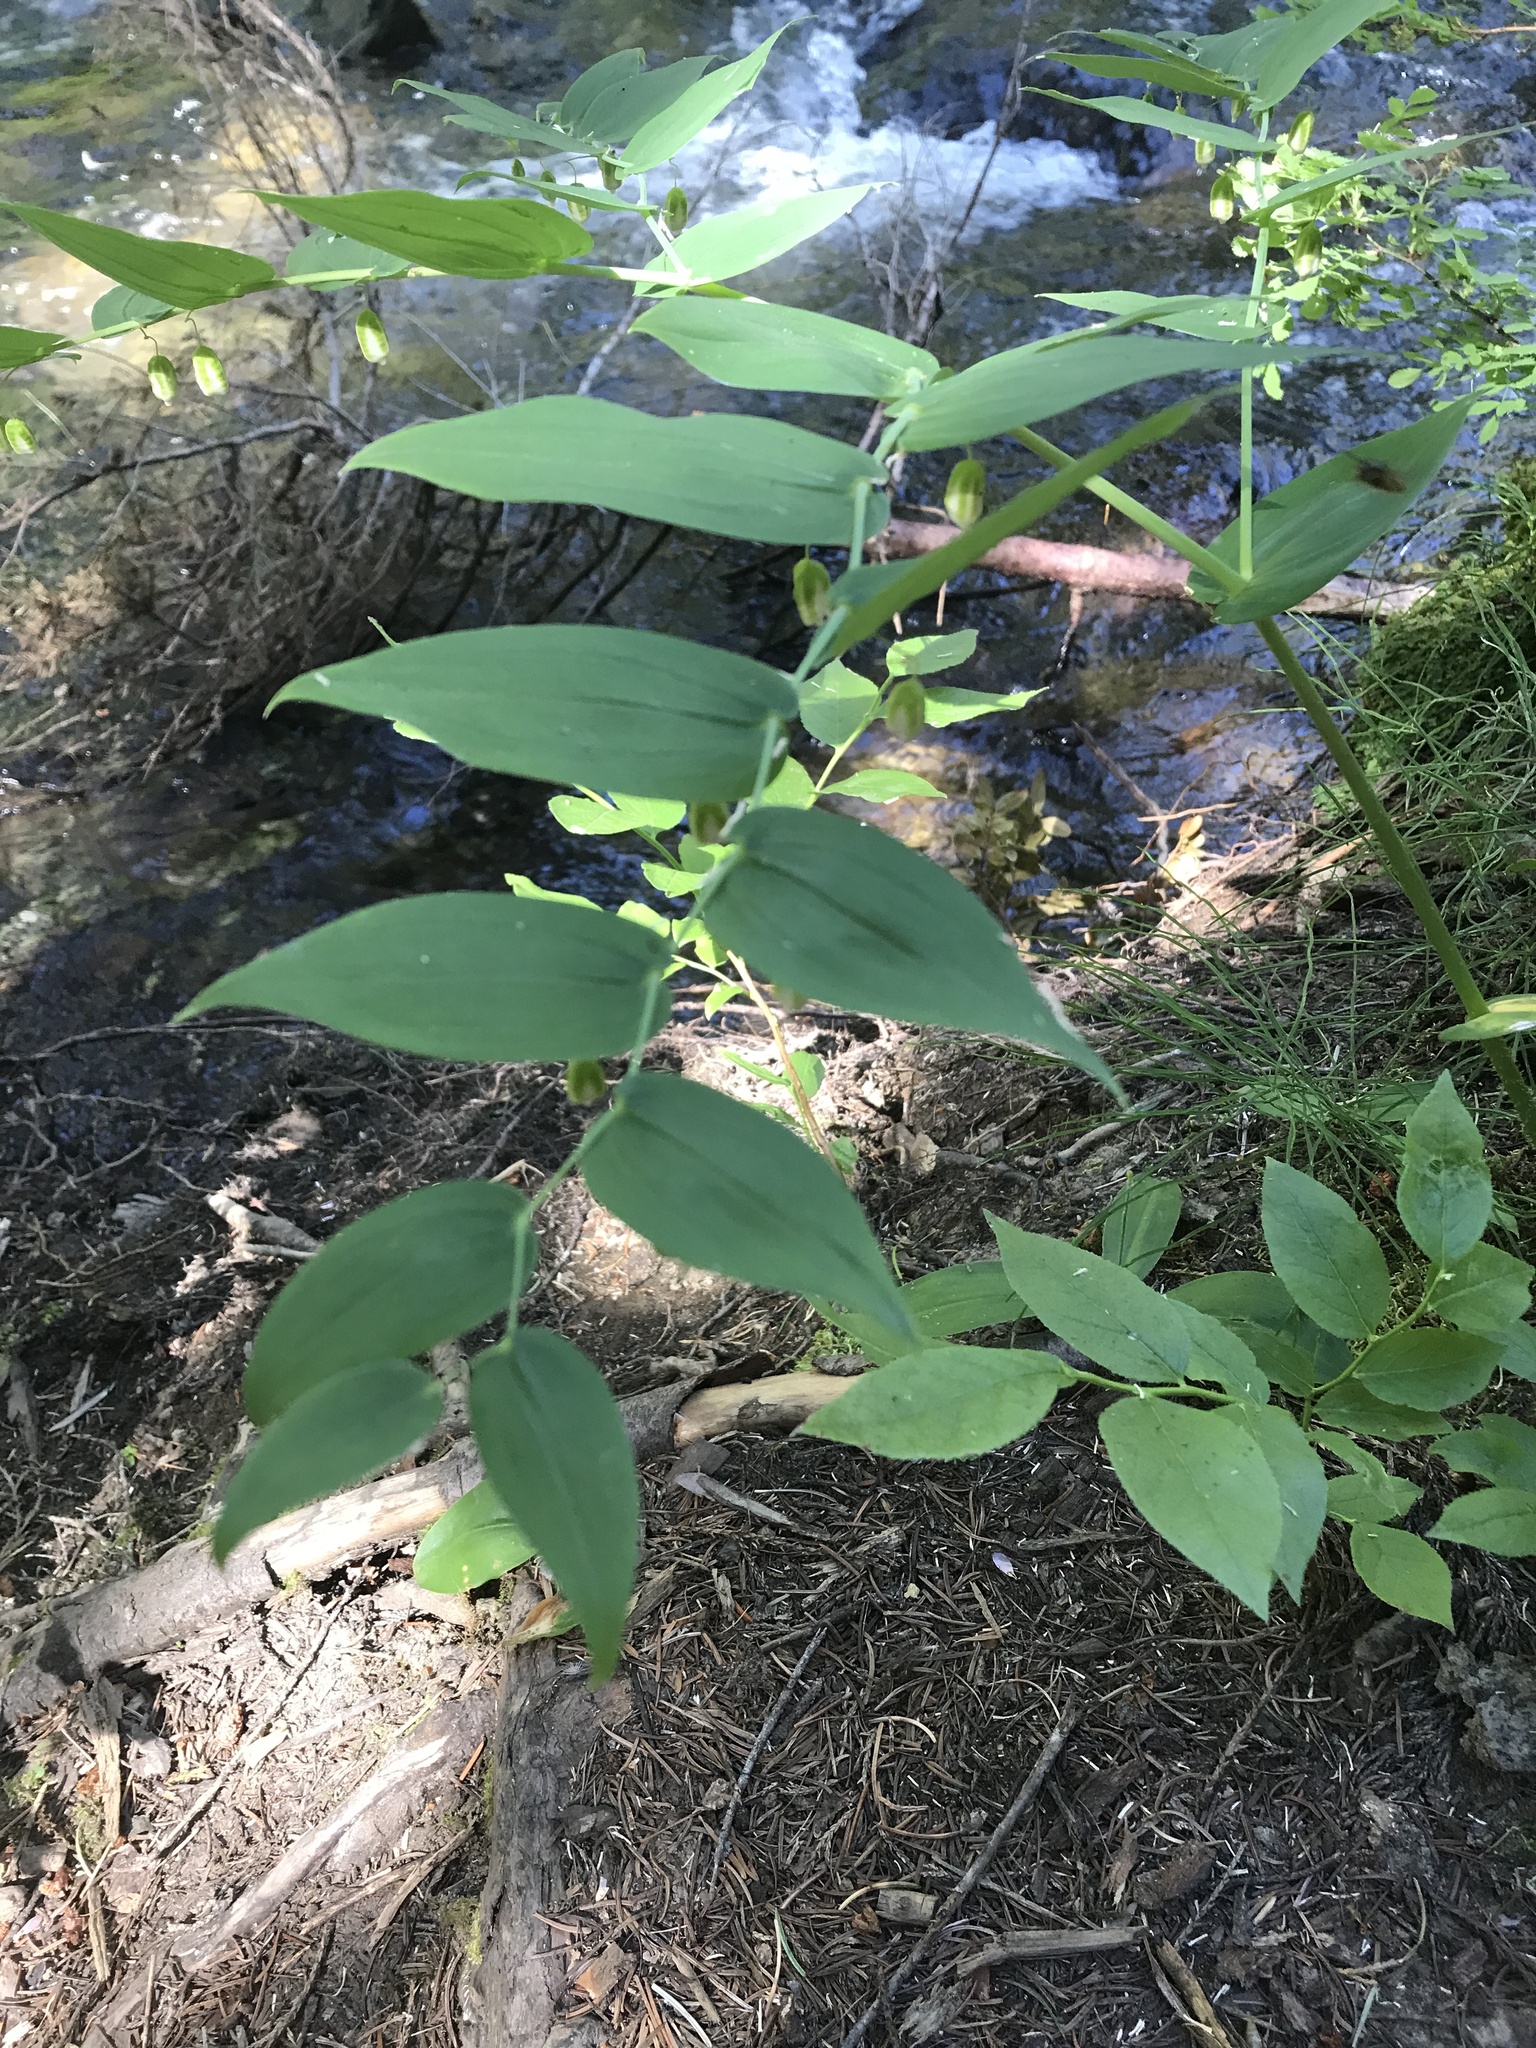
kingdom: Plantae
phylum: Tracheophyta
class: Liliopsida
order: Liliales
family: Liliaceae
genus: Streptopus
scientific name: Streptopus amplexifolius
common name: Clasp twisted stalk
